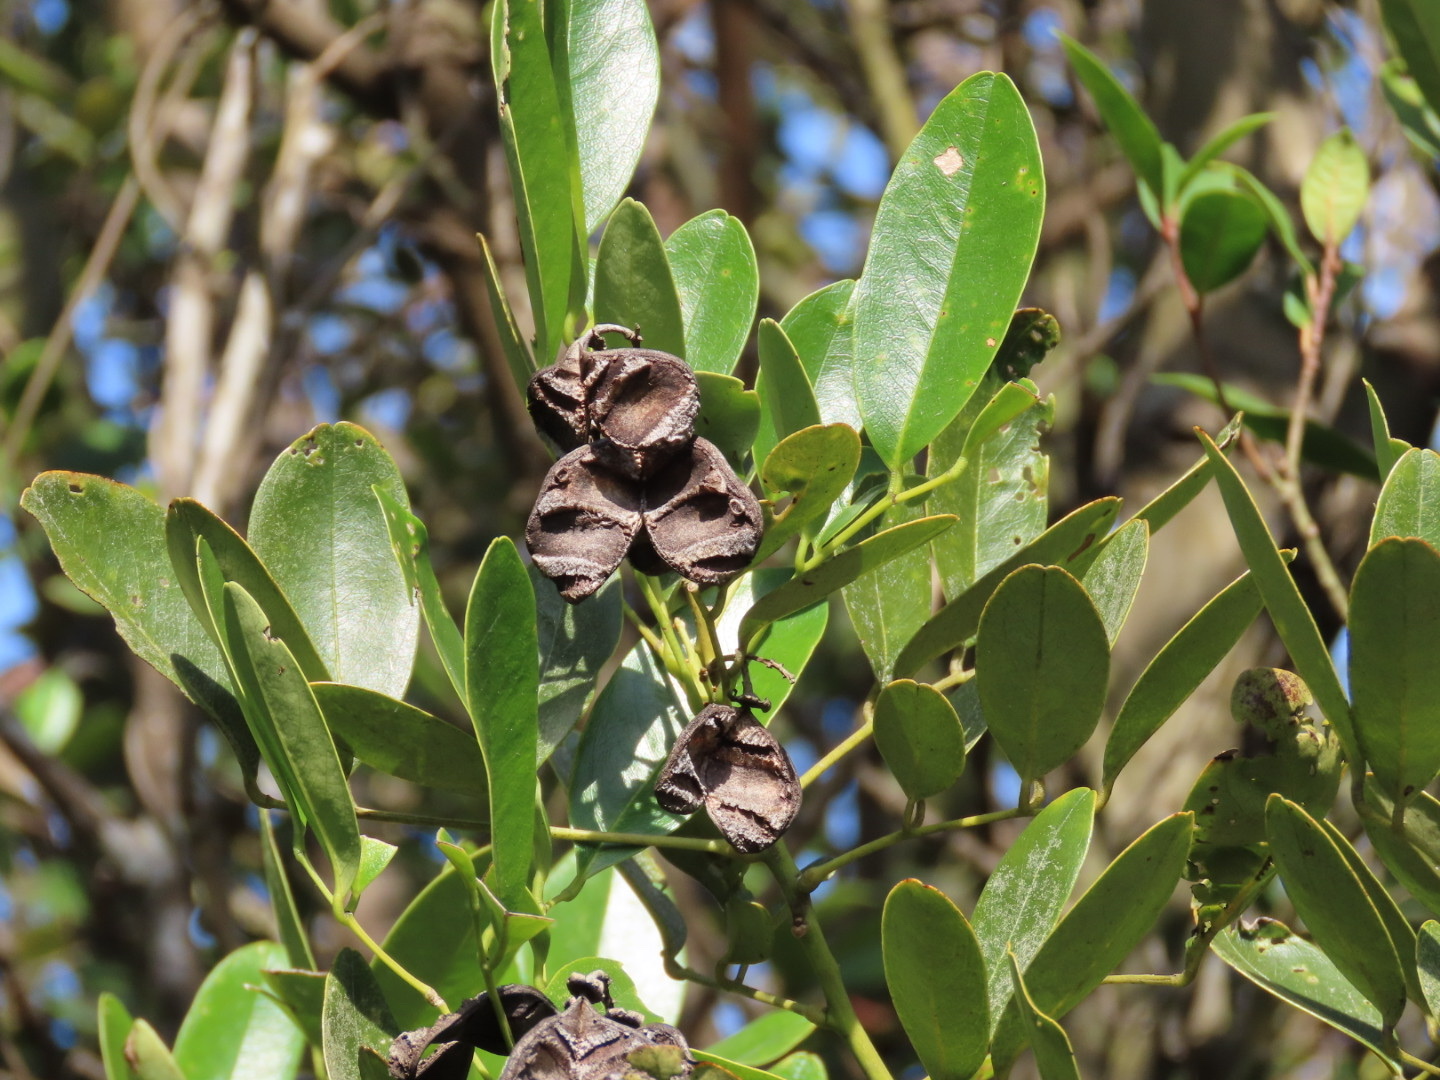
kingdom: Plantae
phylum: Tracheophyta
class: Magnoliopsida
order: Fabales
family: Fabaceae
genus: Ormosia
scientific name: Ormosia emarginata
